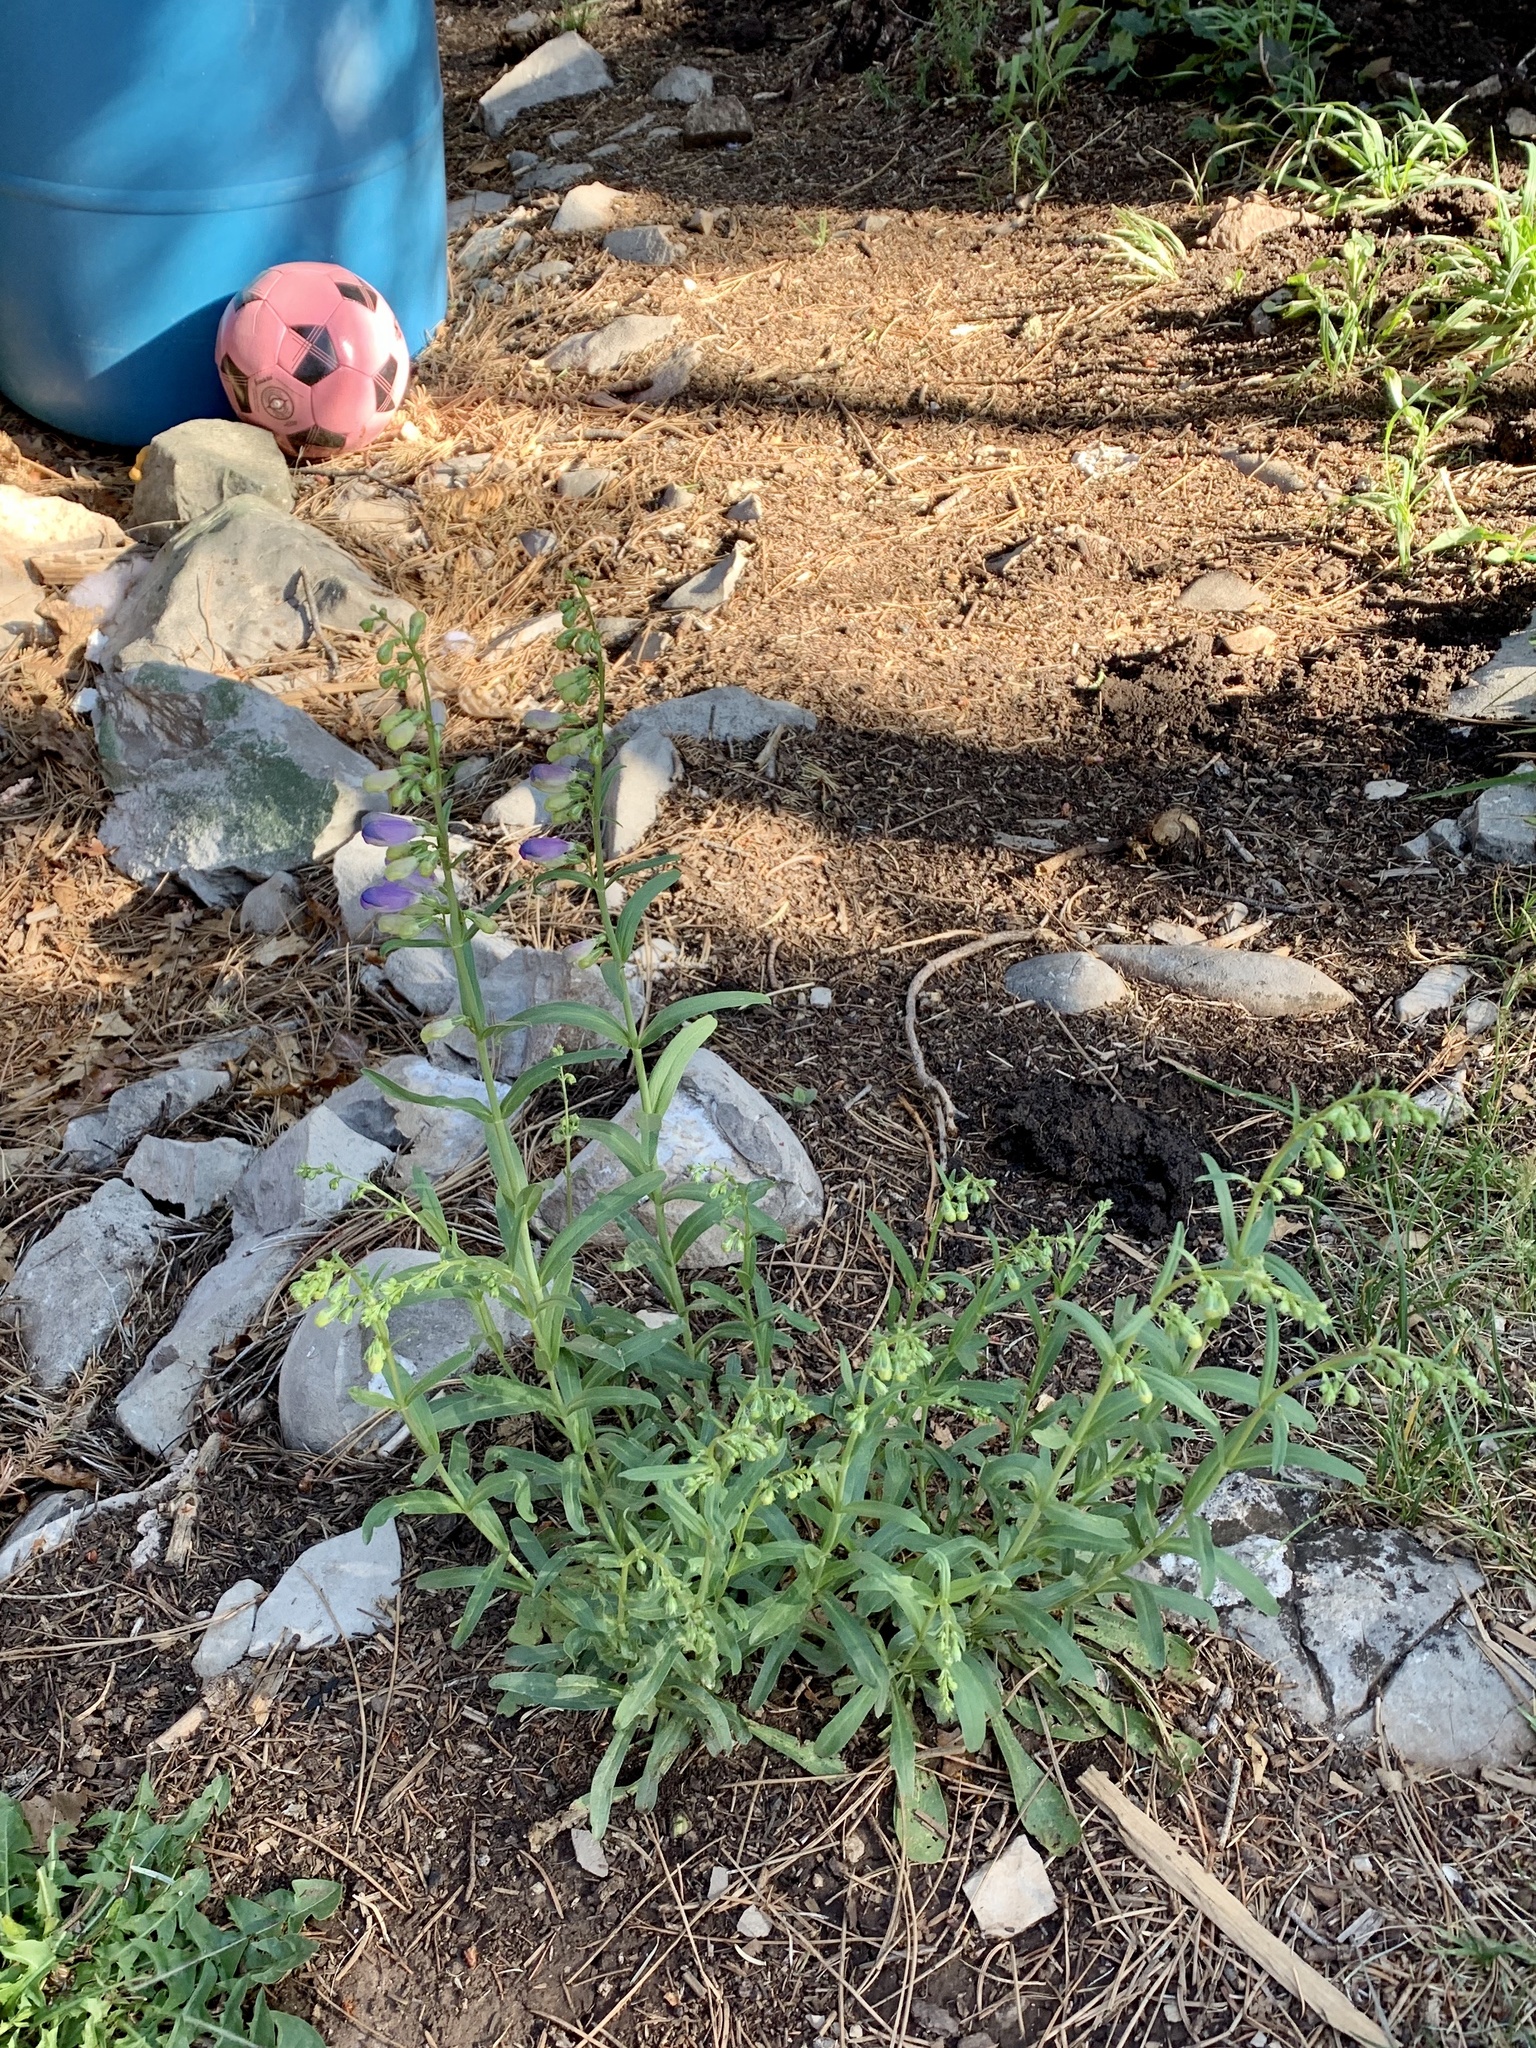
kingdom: Plantae
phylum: Tracheophyta
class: Magnoliopsida
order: Lamiales
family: Plantaginaceae
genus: Penstemon
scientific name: Penstemon neomexicanus
